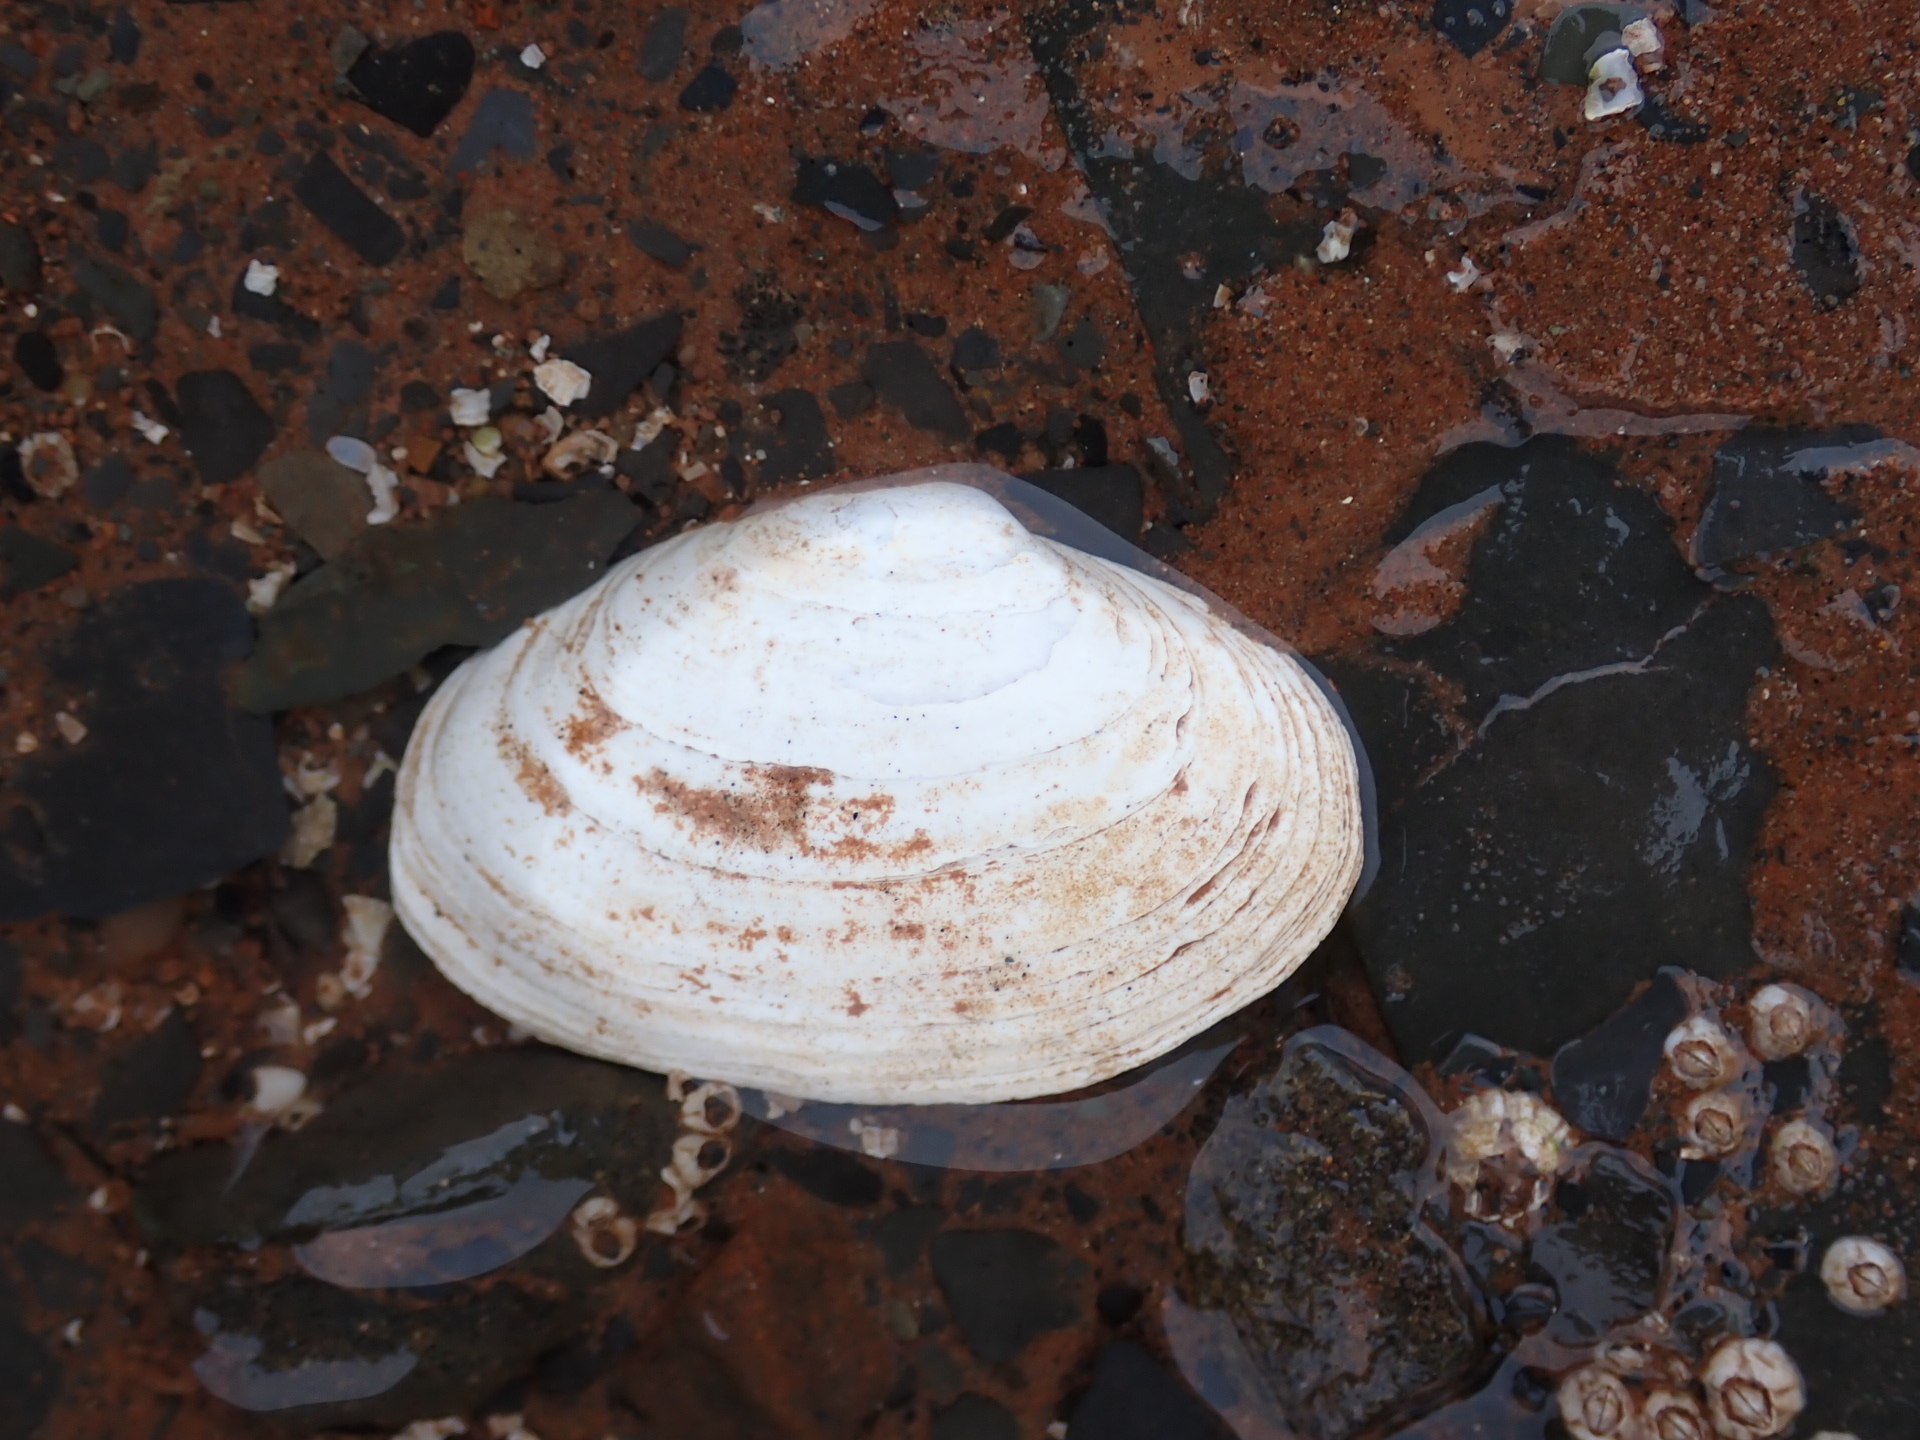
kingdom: Animalia
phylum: Mollusca
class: Bivalvia
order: Myida
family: Myidae
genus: Mya
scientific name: Mya arenaria
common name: Soft-shelled clam
